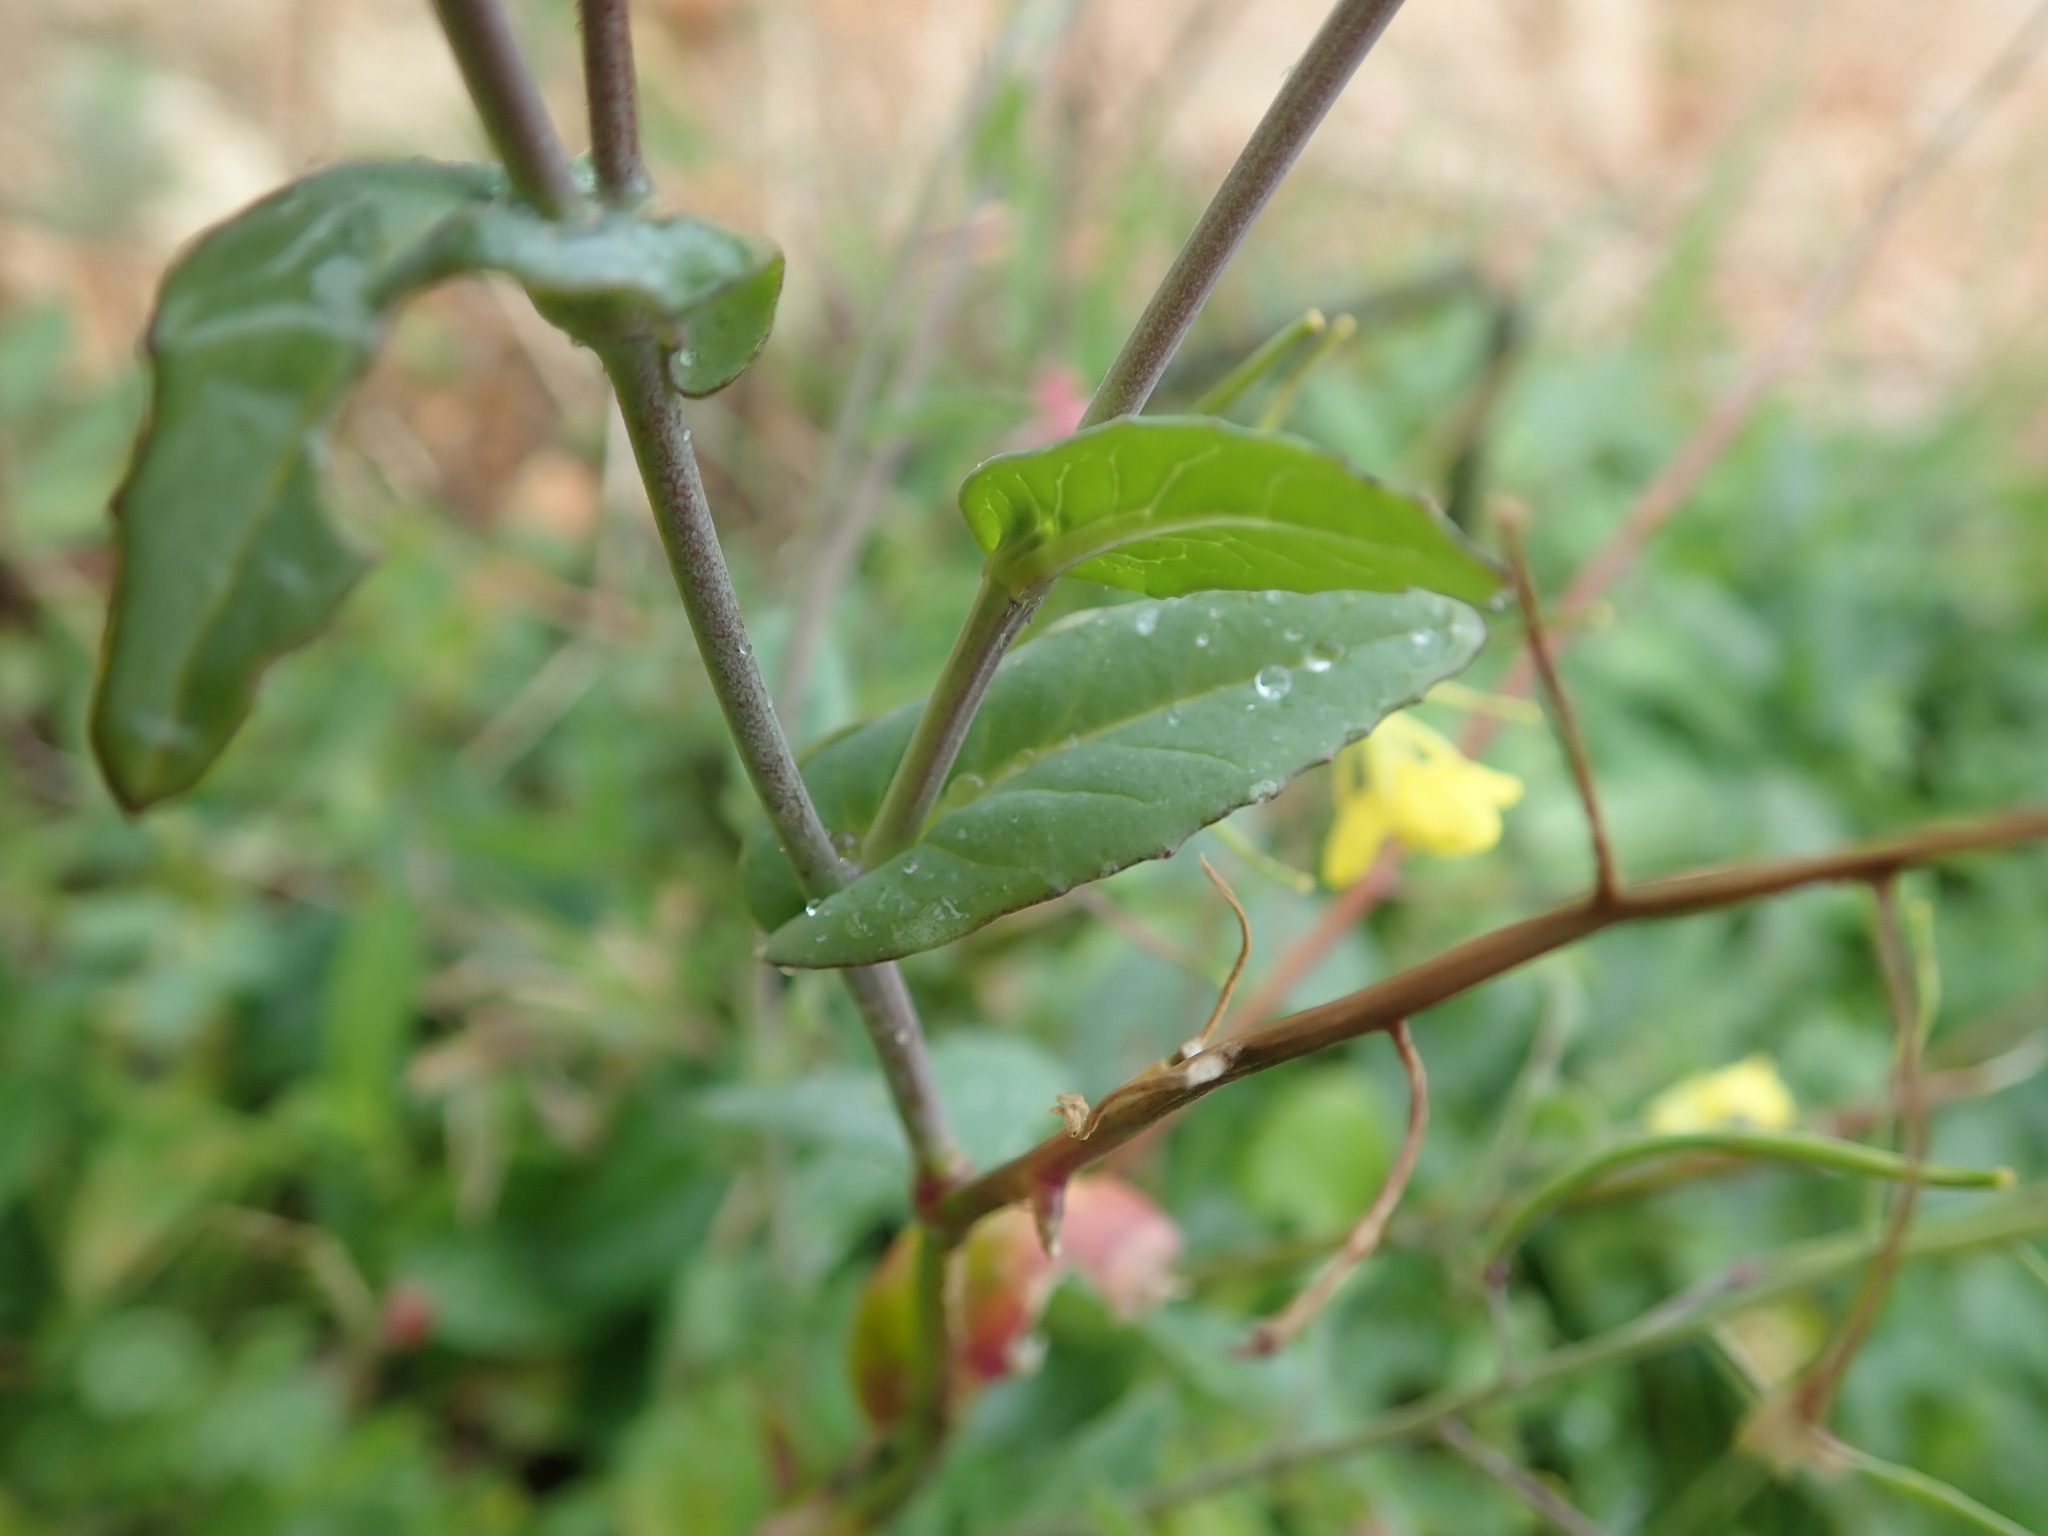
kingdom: Plantae
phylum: Tracheophyta
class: Magnoliopsida
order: Brassicales
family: Brassicaceae
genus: Brassica
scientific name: Brassica rapa
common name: Field mustard
